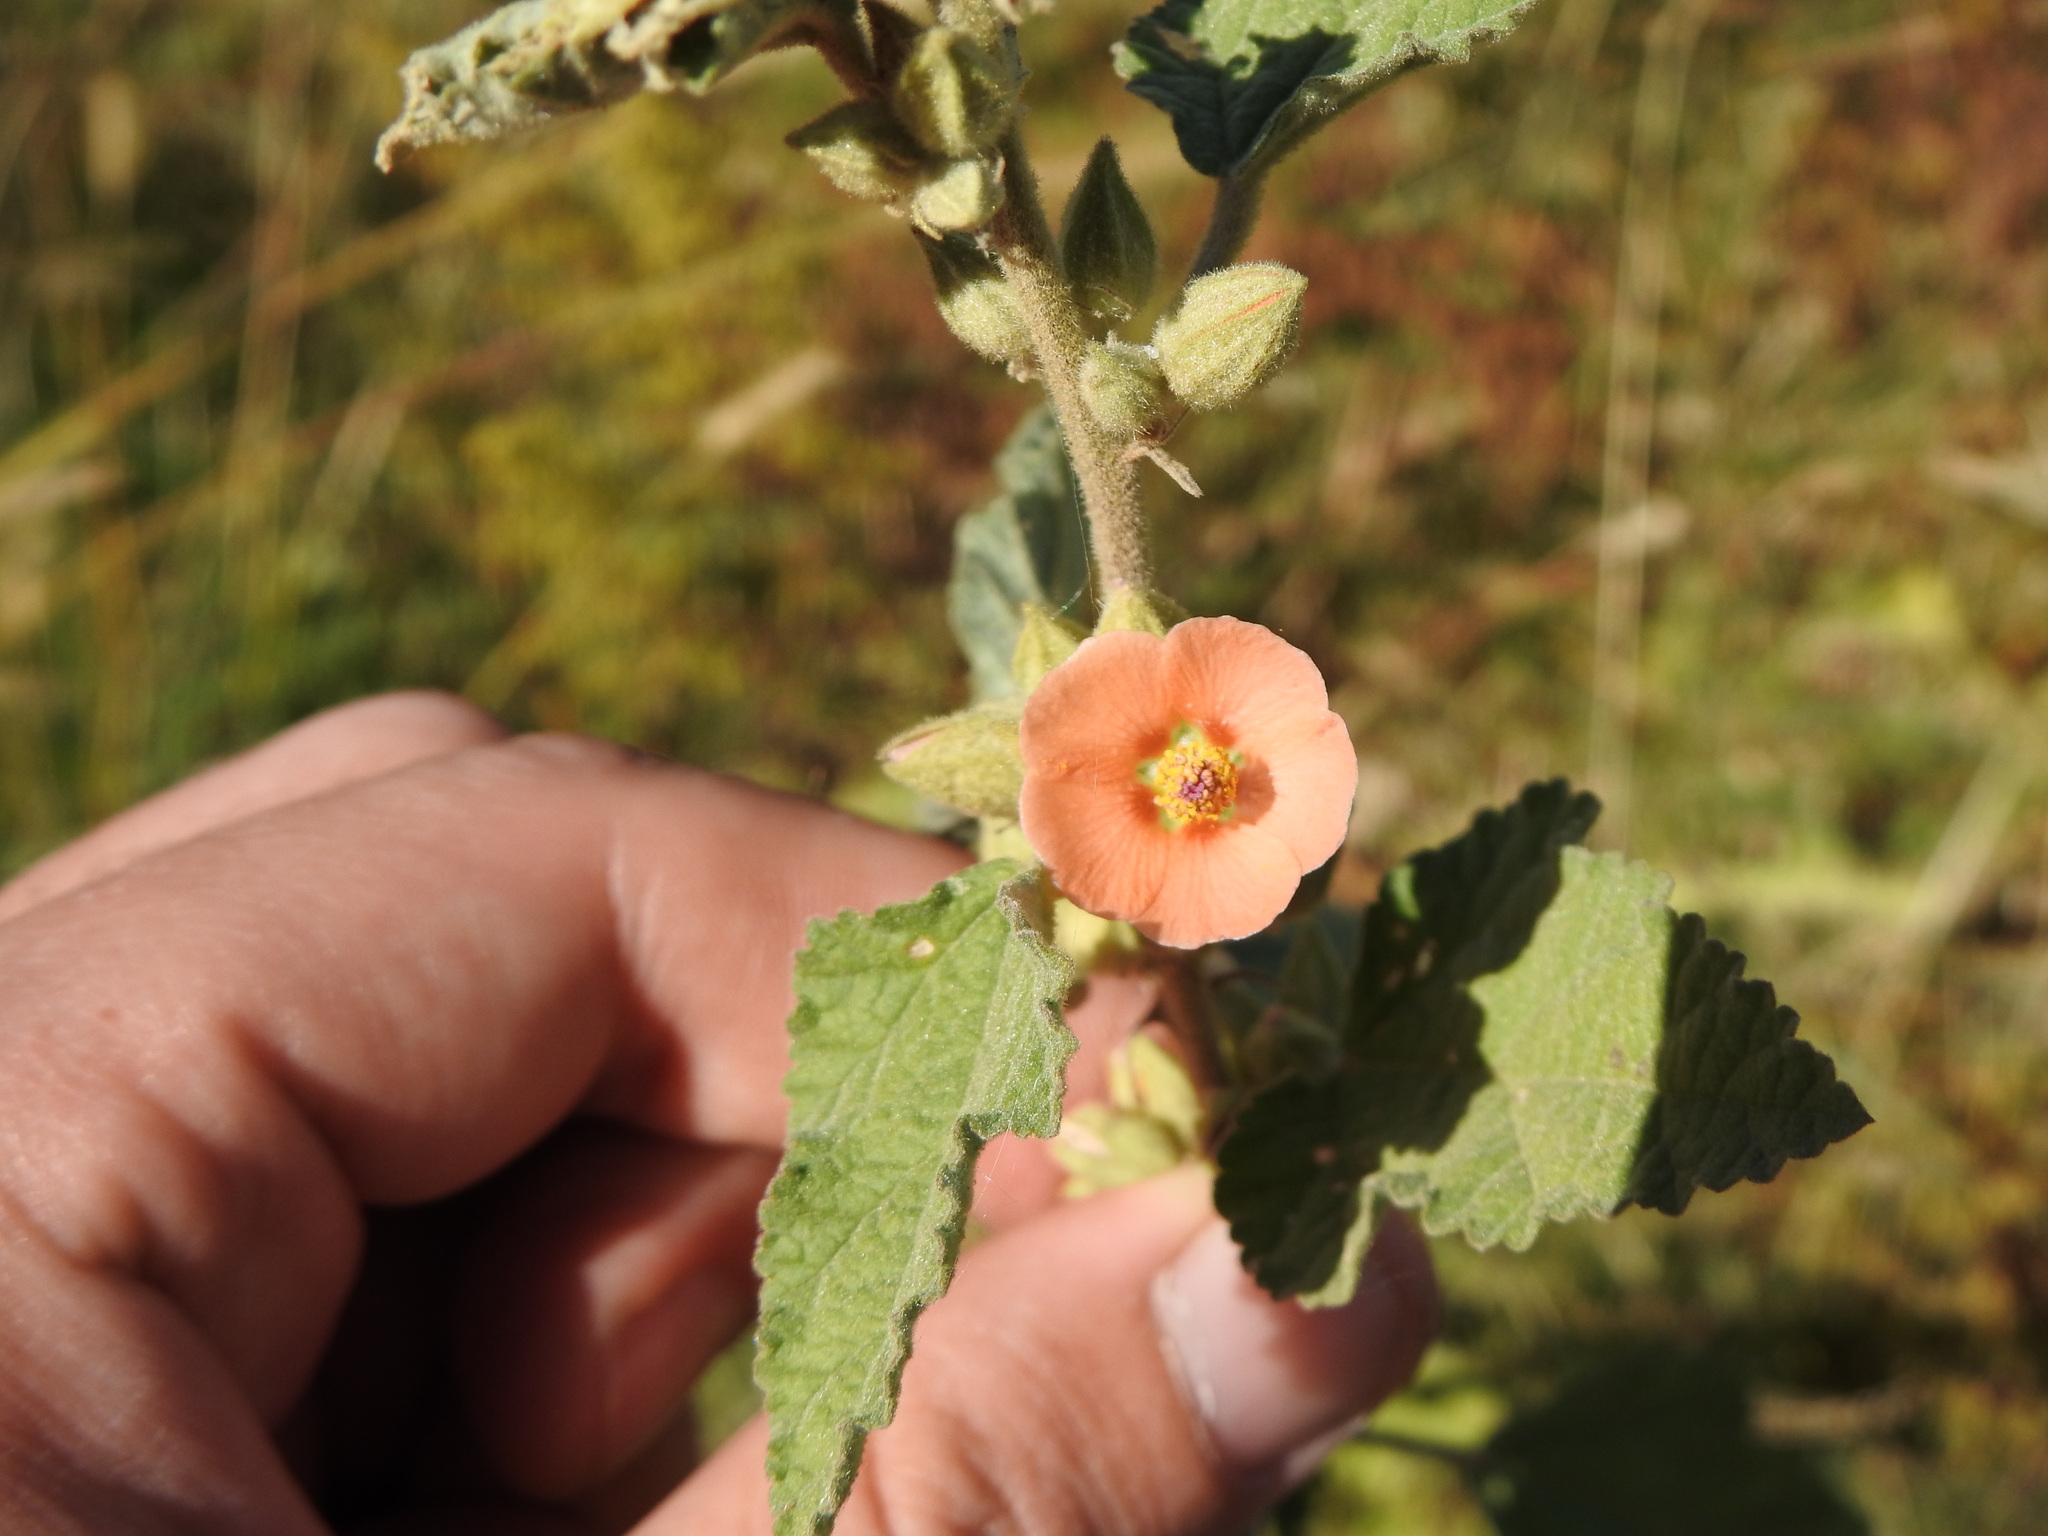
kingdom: Plantae
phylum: Tracheophyta
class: Magnoliopsida
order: Malvales
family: Malvaceae
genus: Sphaeralcea
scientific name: Sphaeralcea bonariensis
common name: Latin globemallow
